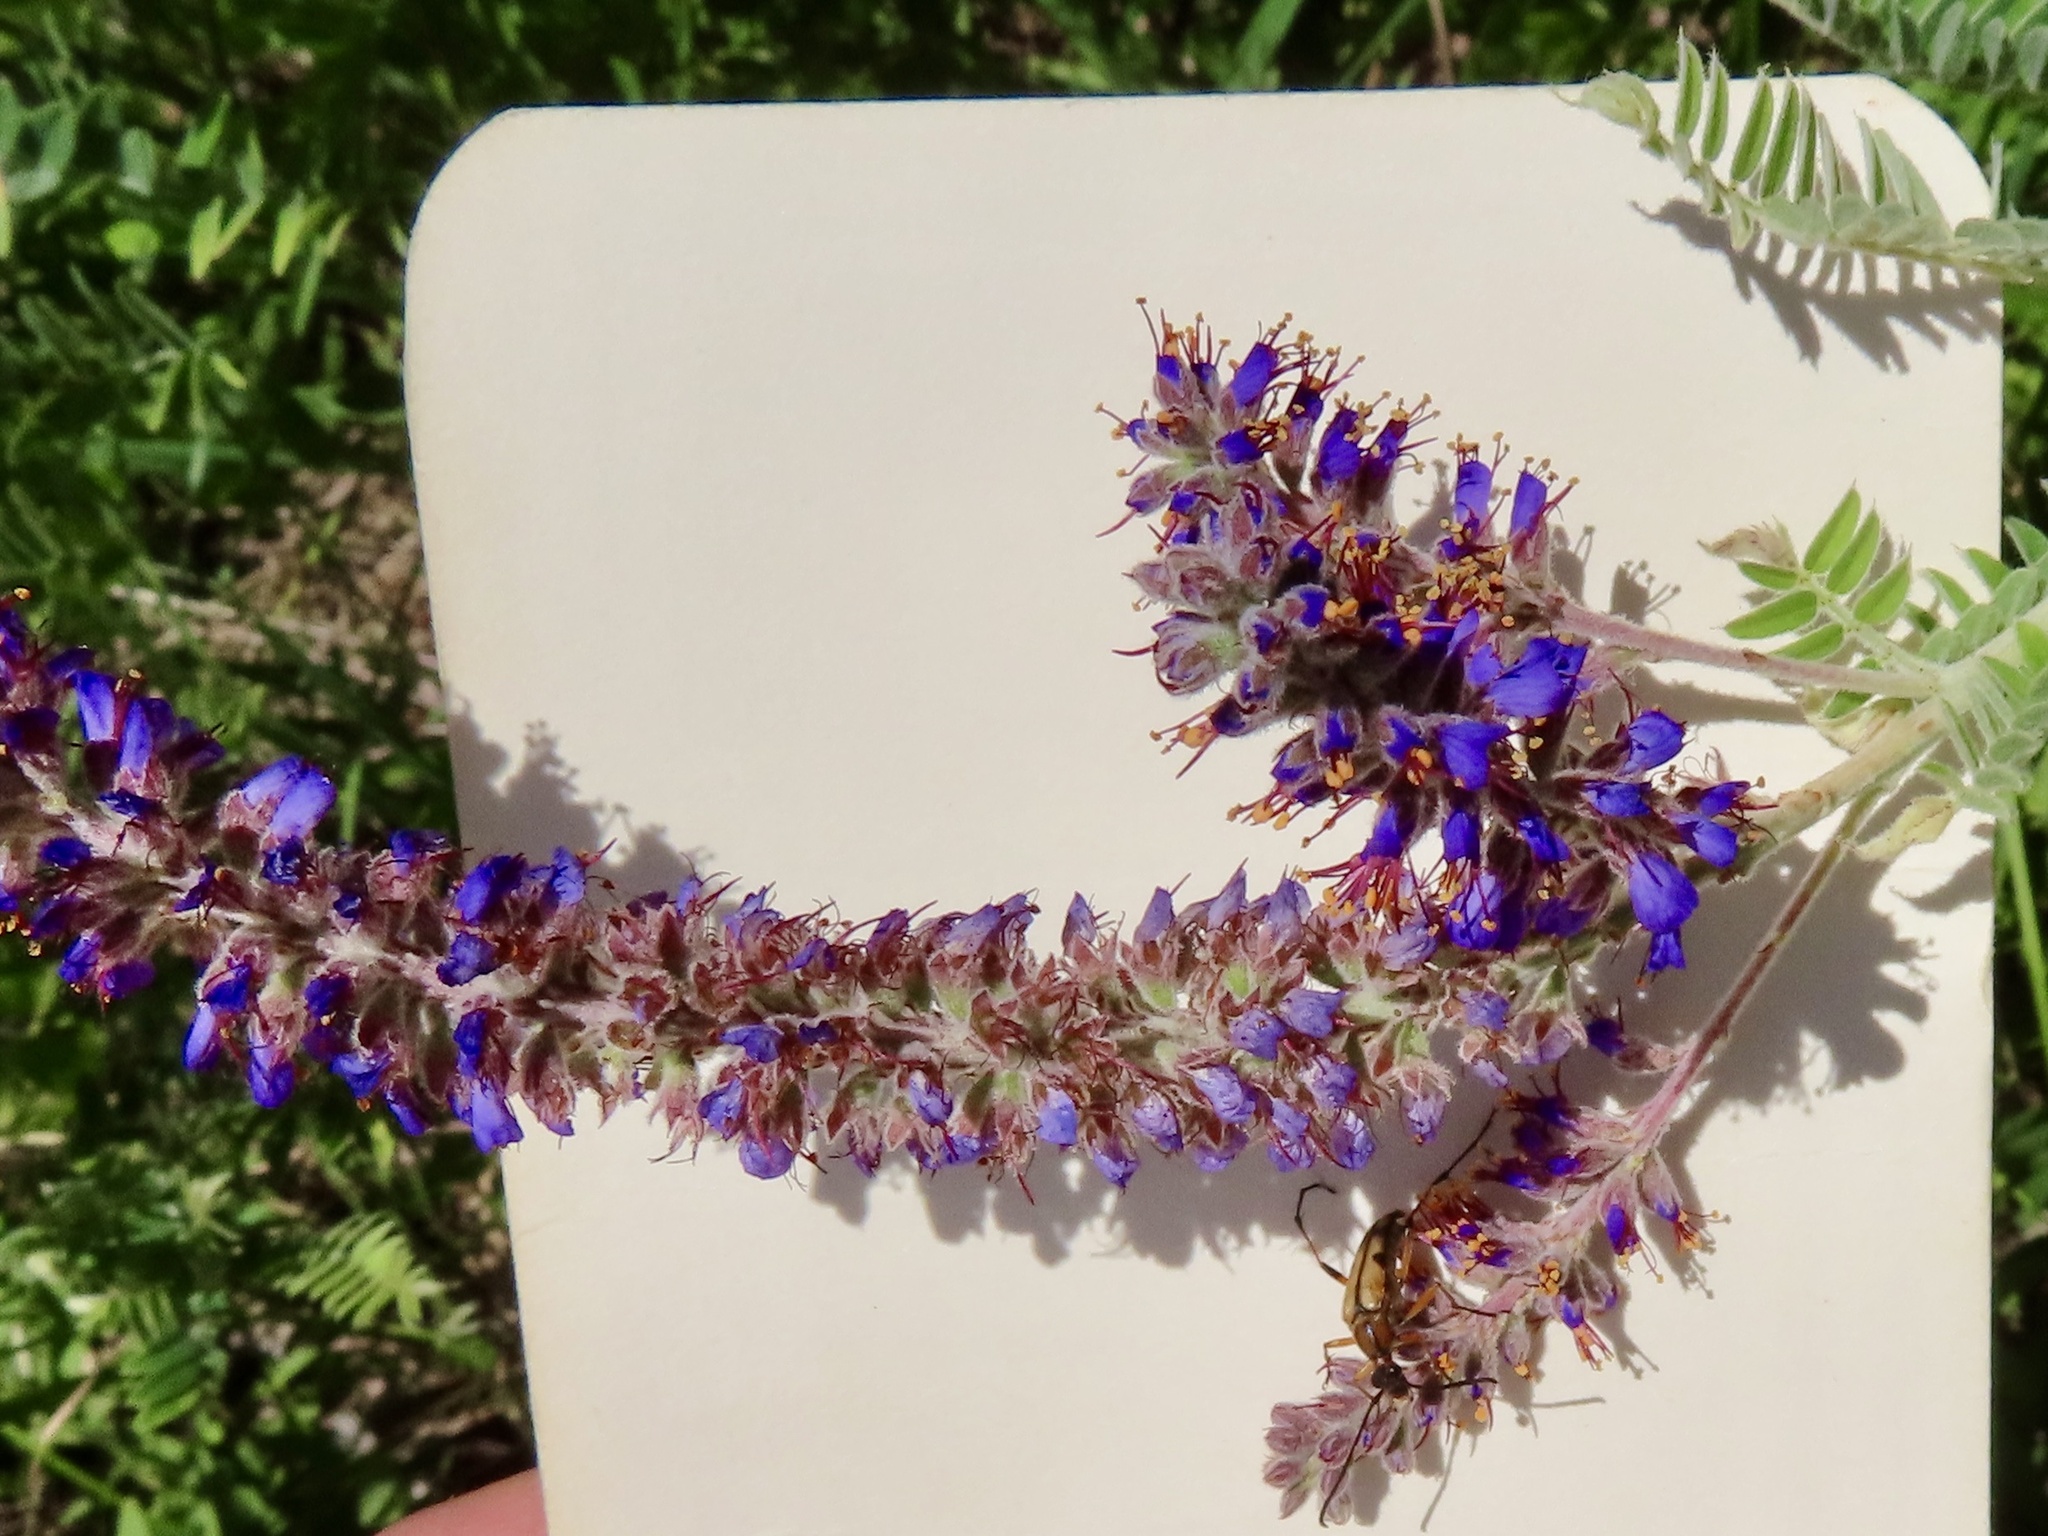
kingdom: Plantae
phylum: Tracheophyta
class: Magnoliopsida
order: Fabales
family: Fabaceae
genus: Amorpha
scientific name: Amorpha canescens
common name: Leadplant
